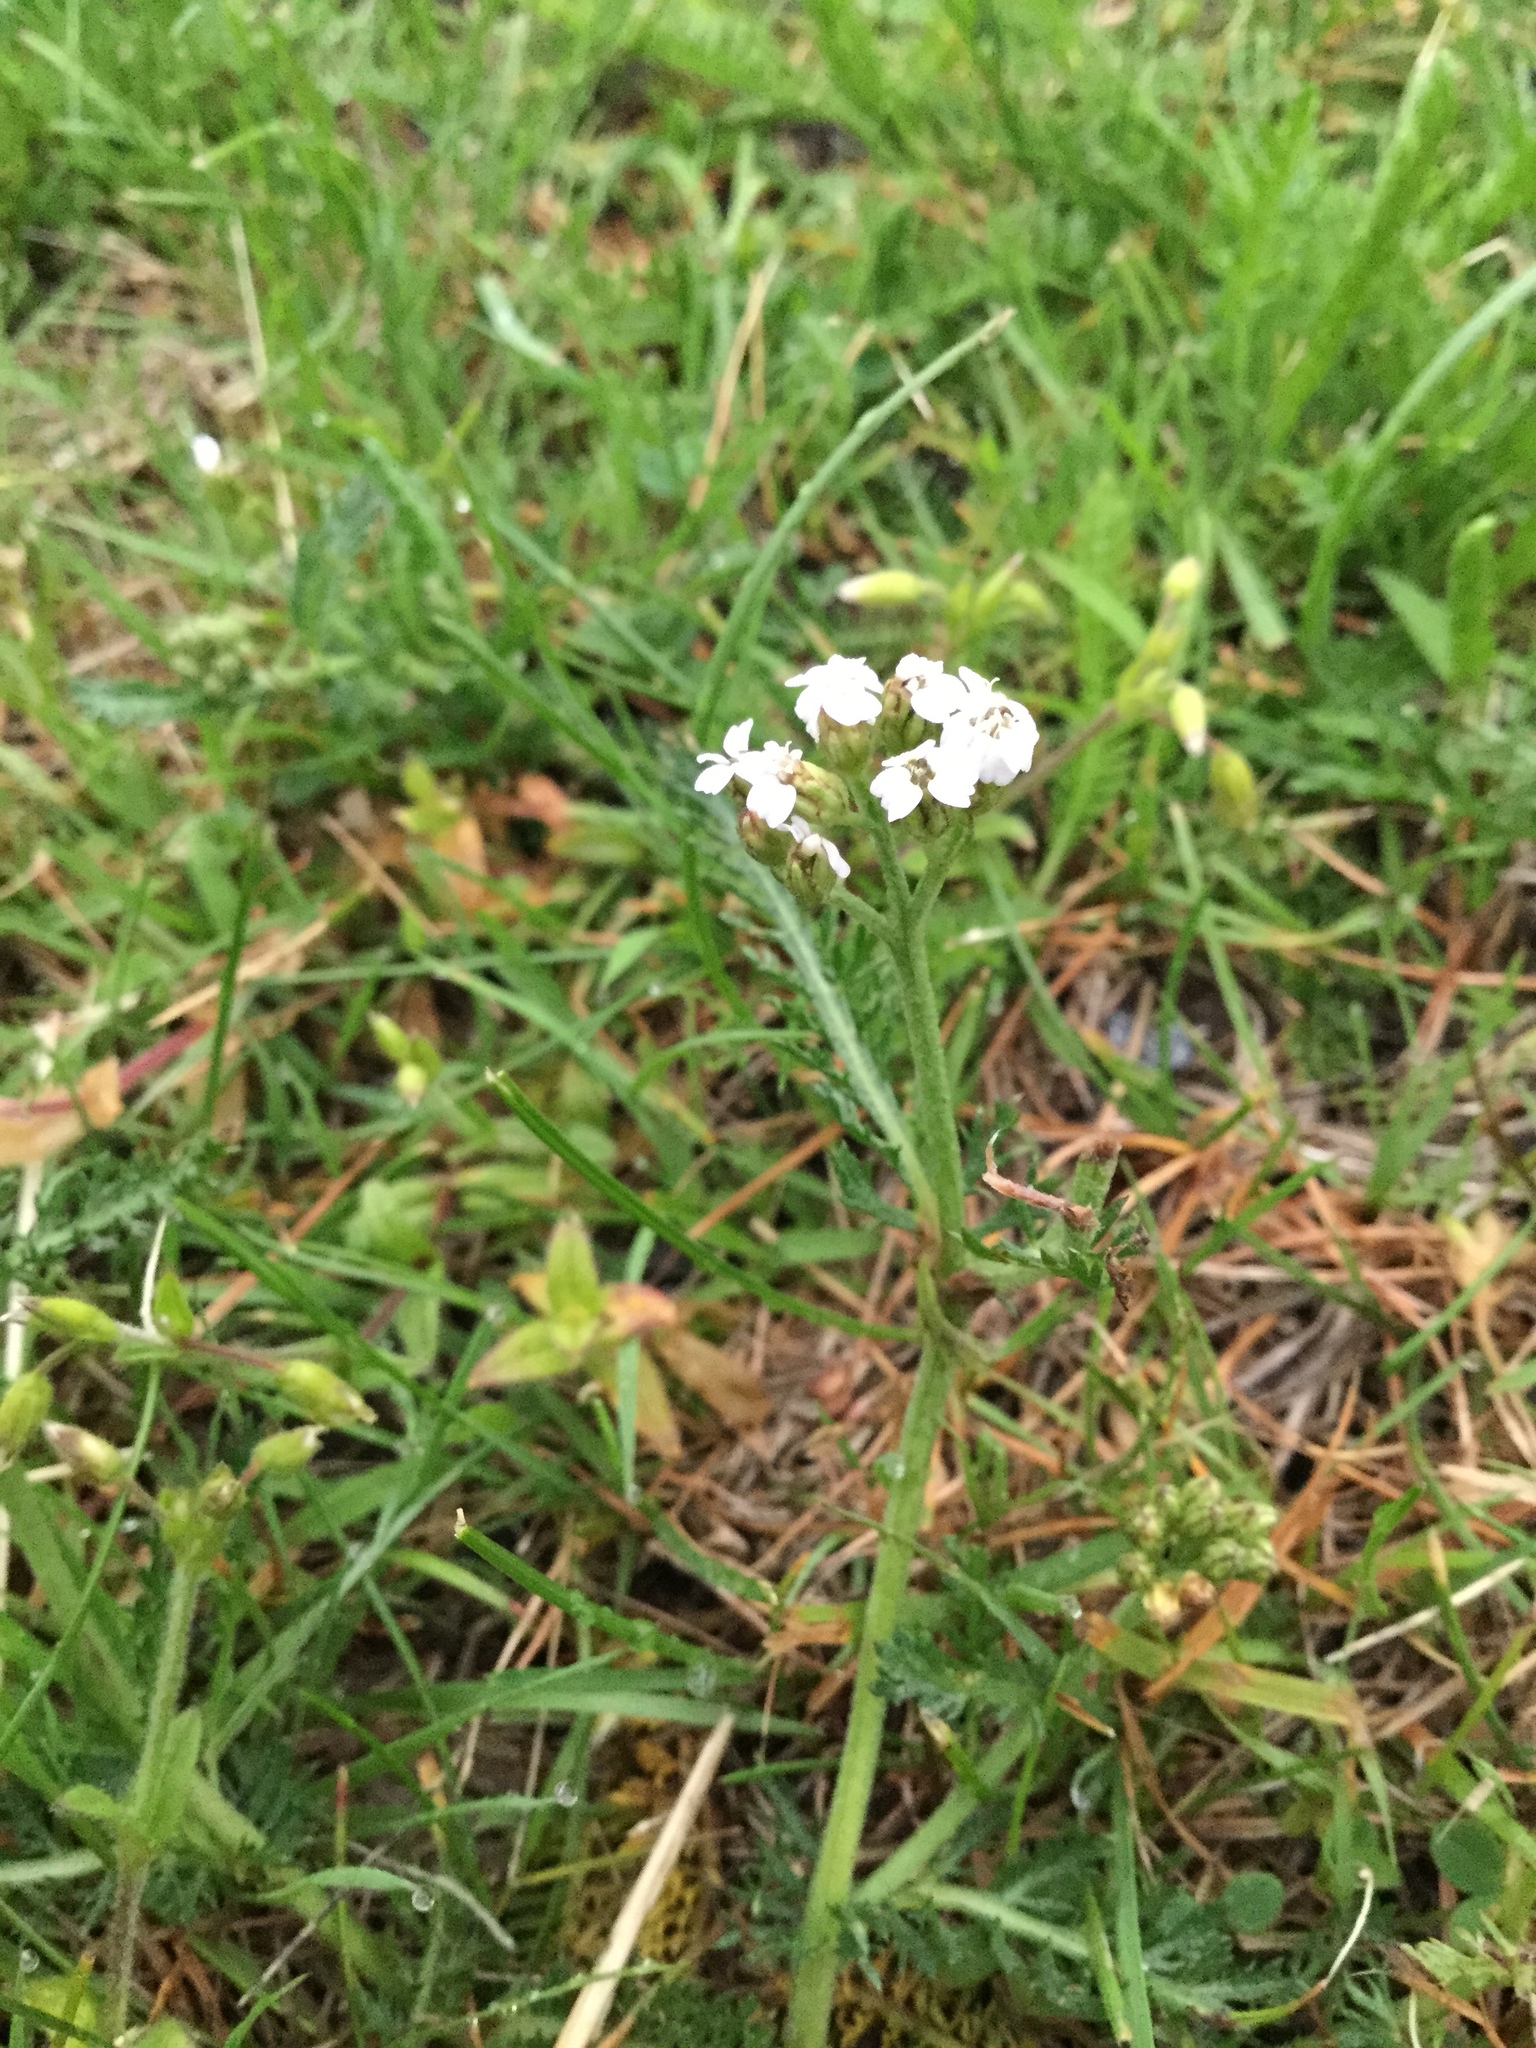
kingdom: Plantae
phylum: Tracheophyta
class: Magnoliopsida
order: Asterales
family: Asteraceae
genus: Achillea
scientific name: Achillea millefolium
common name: Yarrow
